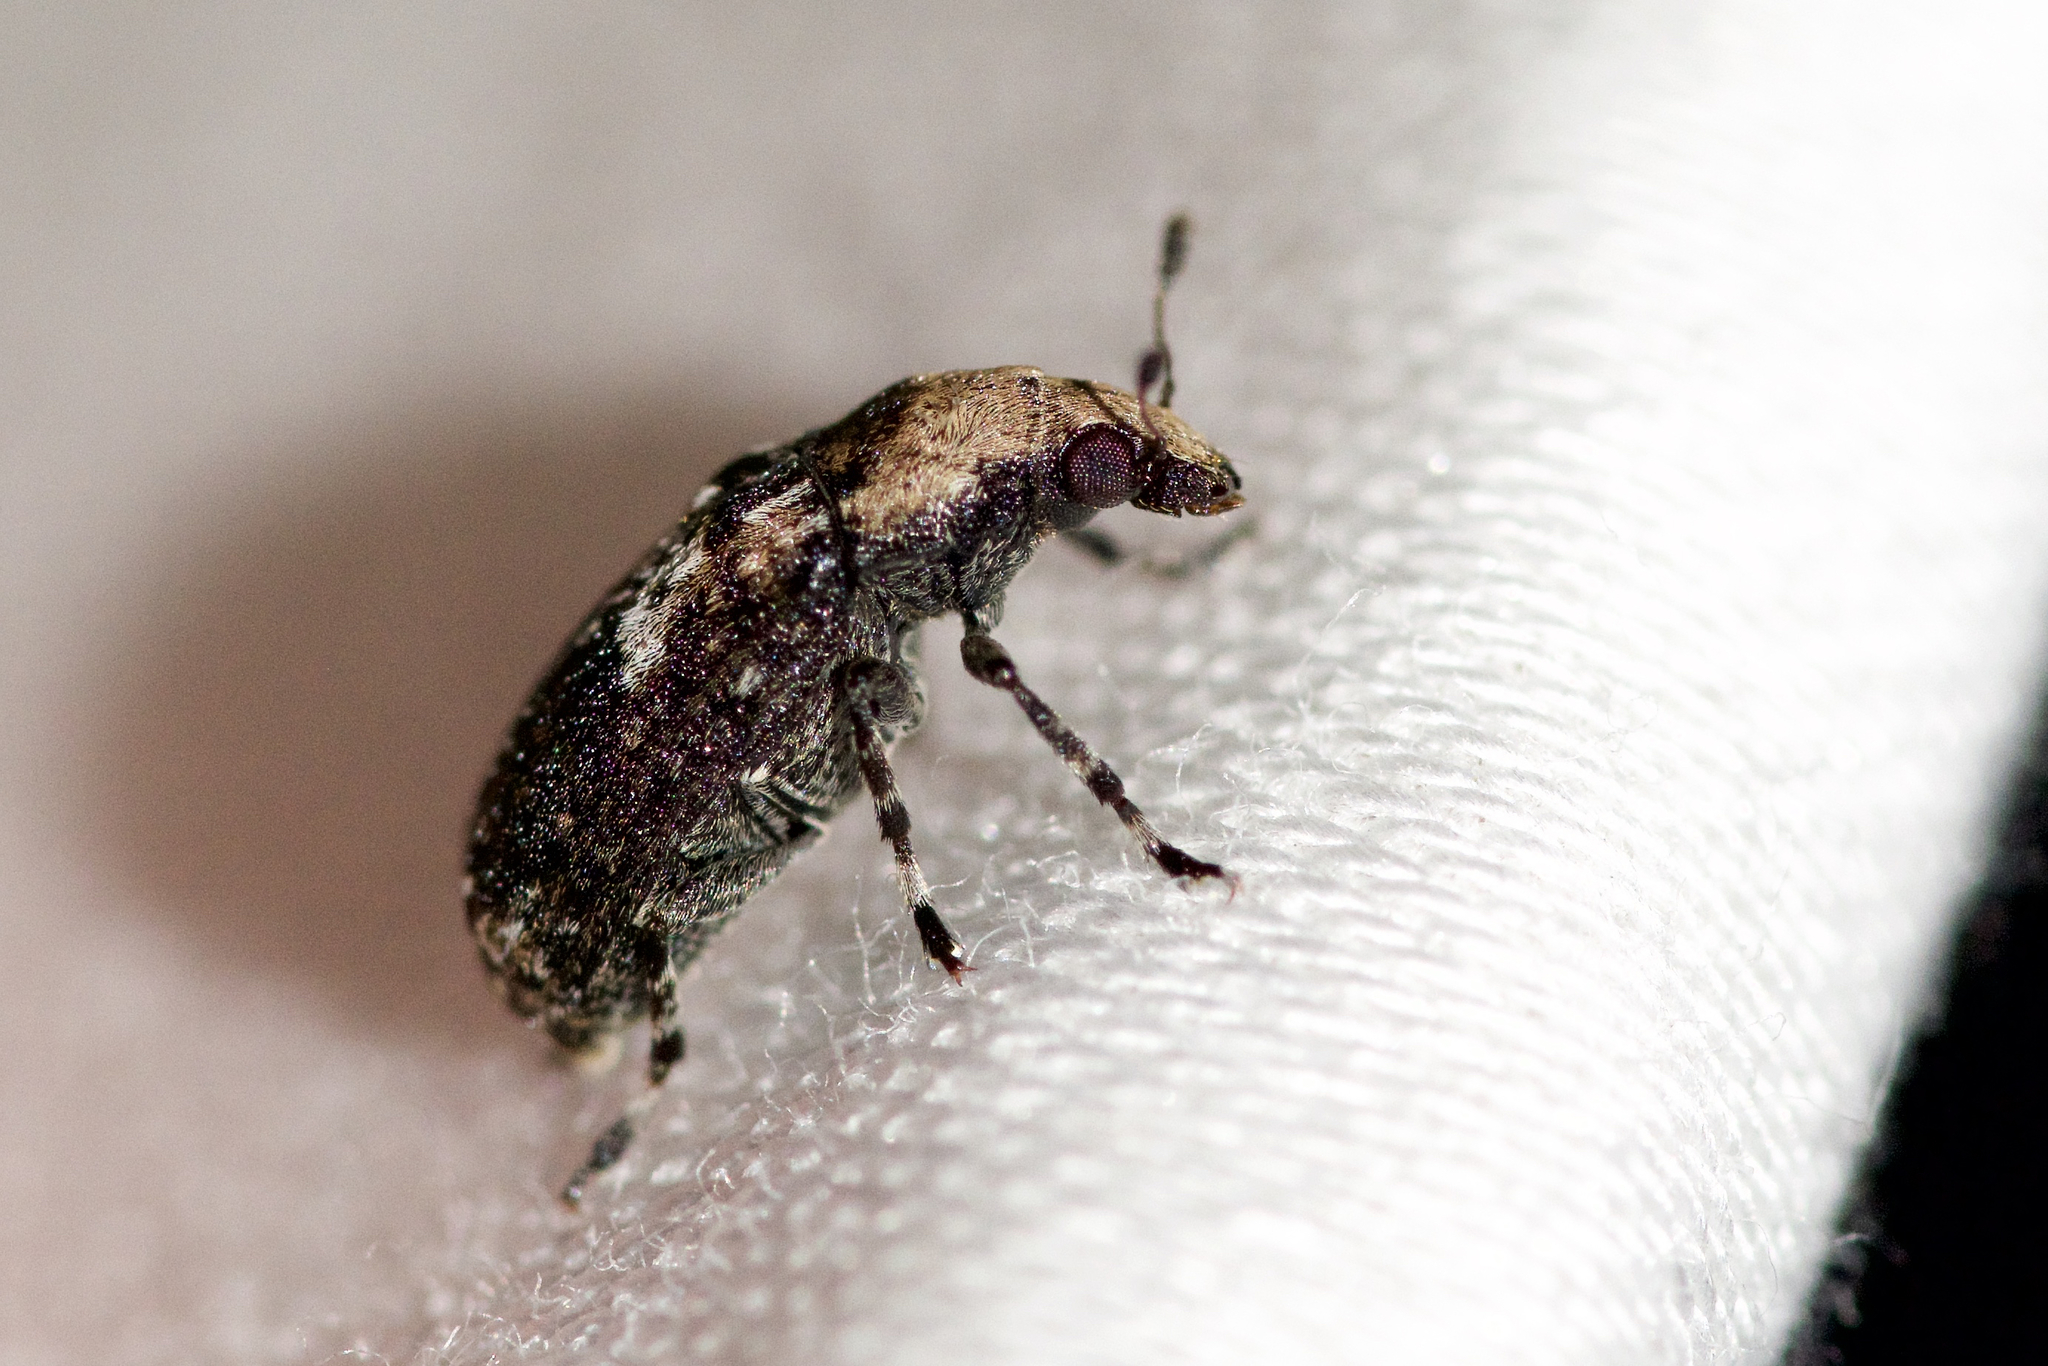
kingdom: Animalia
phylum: Arthropoda
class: Insecta
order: Coleoptera
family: Anthribidae
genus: Euparius
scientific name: Euparius paganus
